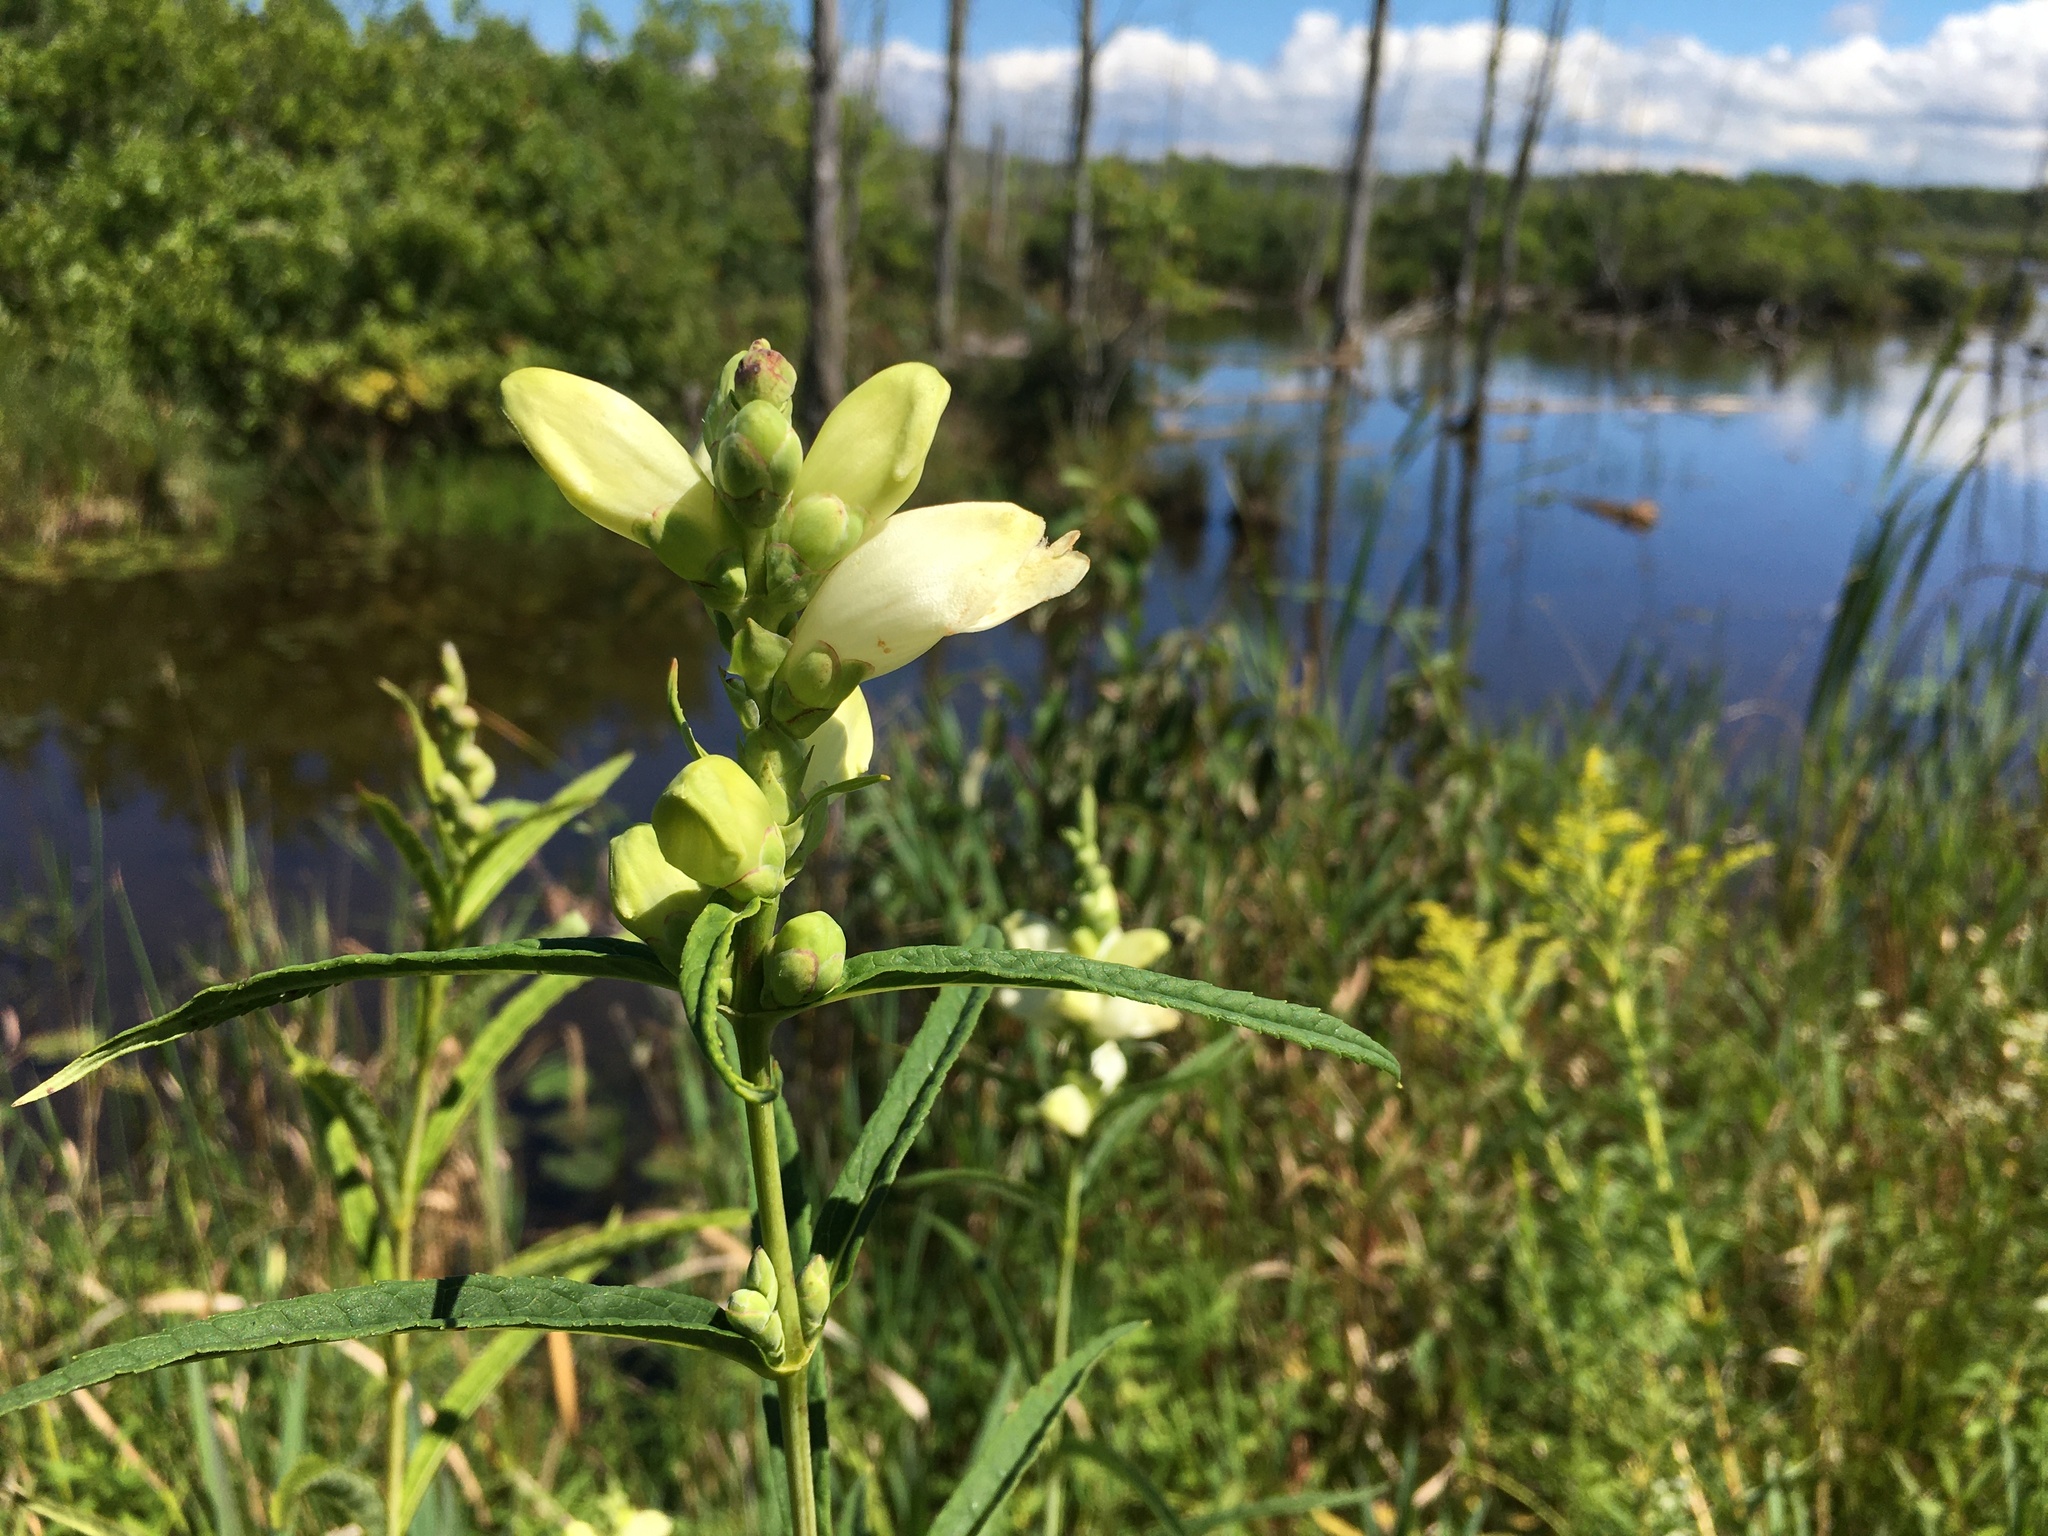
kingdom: Plantae
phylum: Tracheophyta
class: Magnoliopsida
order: Lamiales
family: Plantaginaceae
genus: Chelone
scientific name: Chelone glabra
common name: Snakehead
